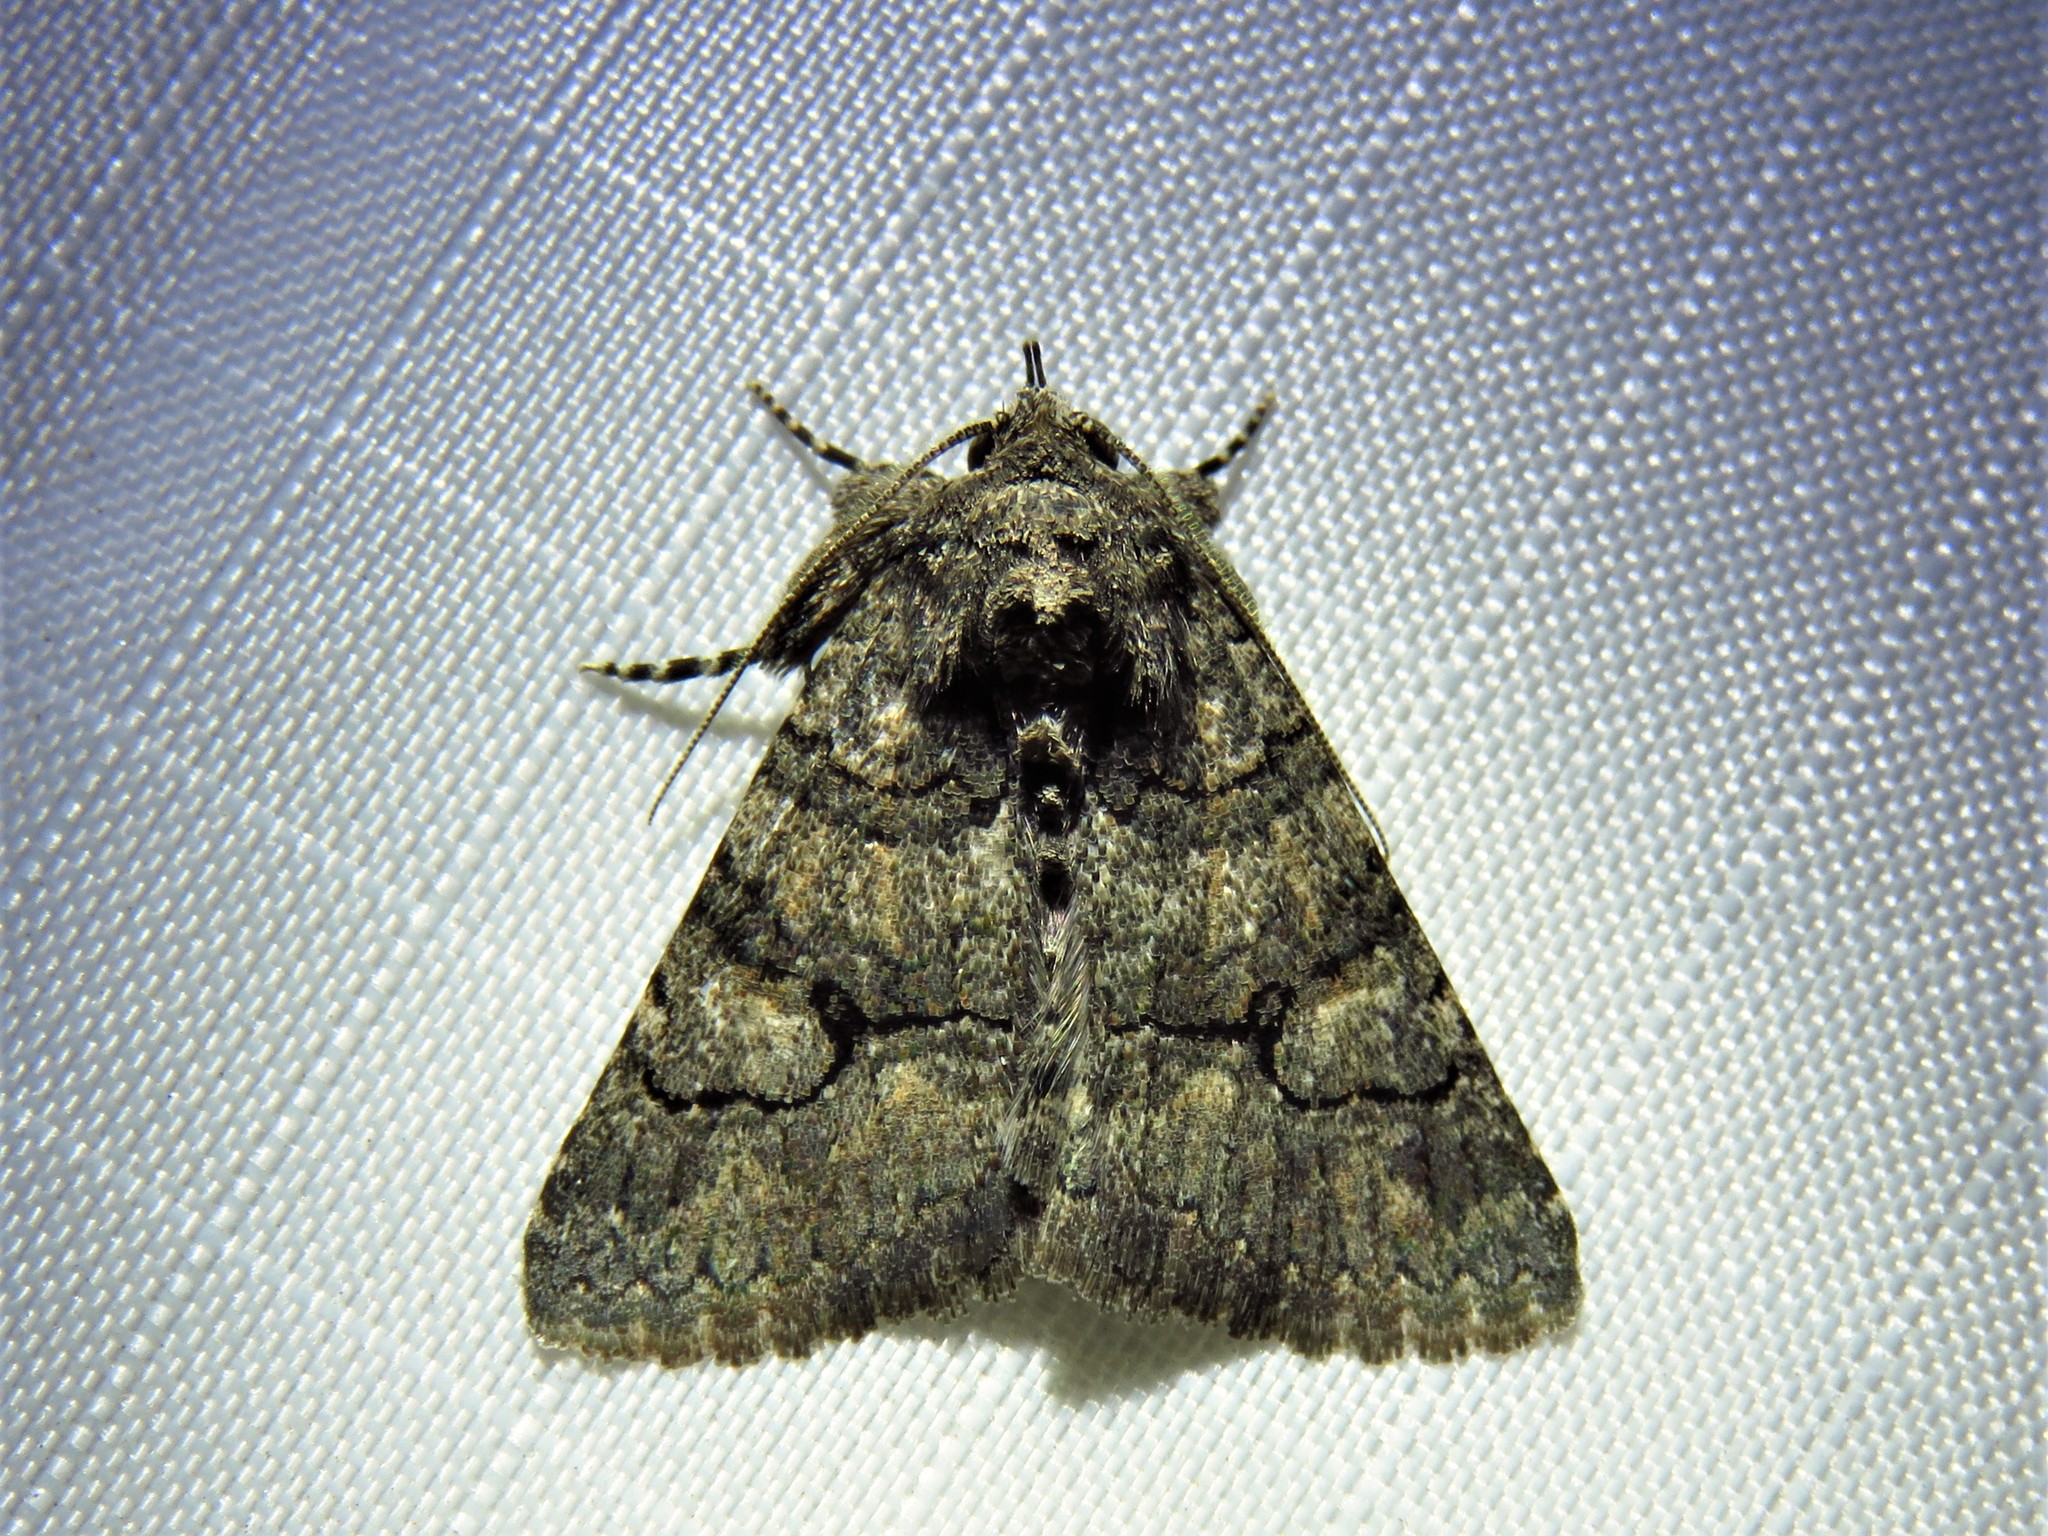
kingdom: Animalia
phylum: Arthropoda
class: Insecta
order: Lepidoptera
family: Erebidae
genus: Elousa
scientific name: Elousa mima
